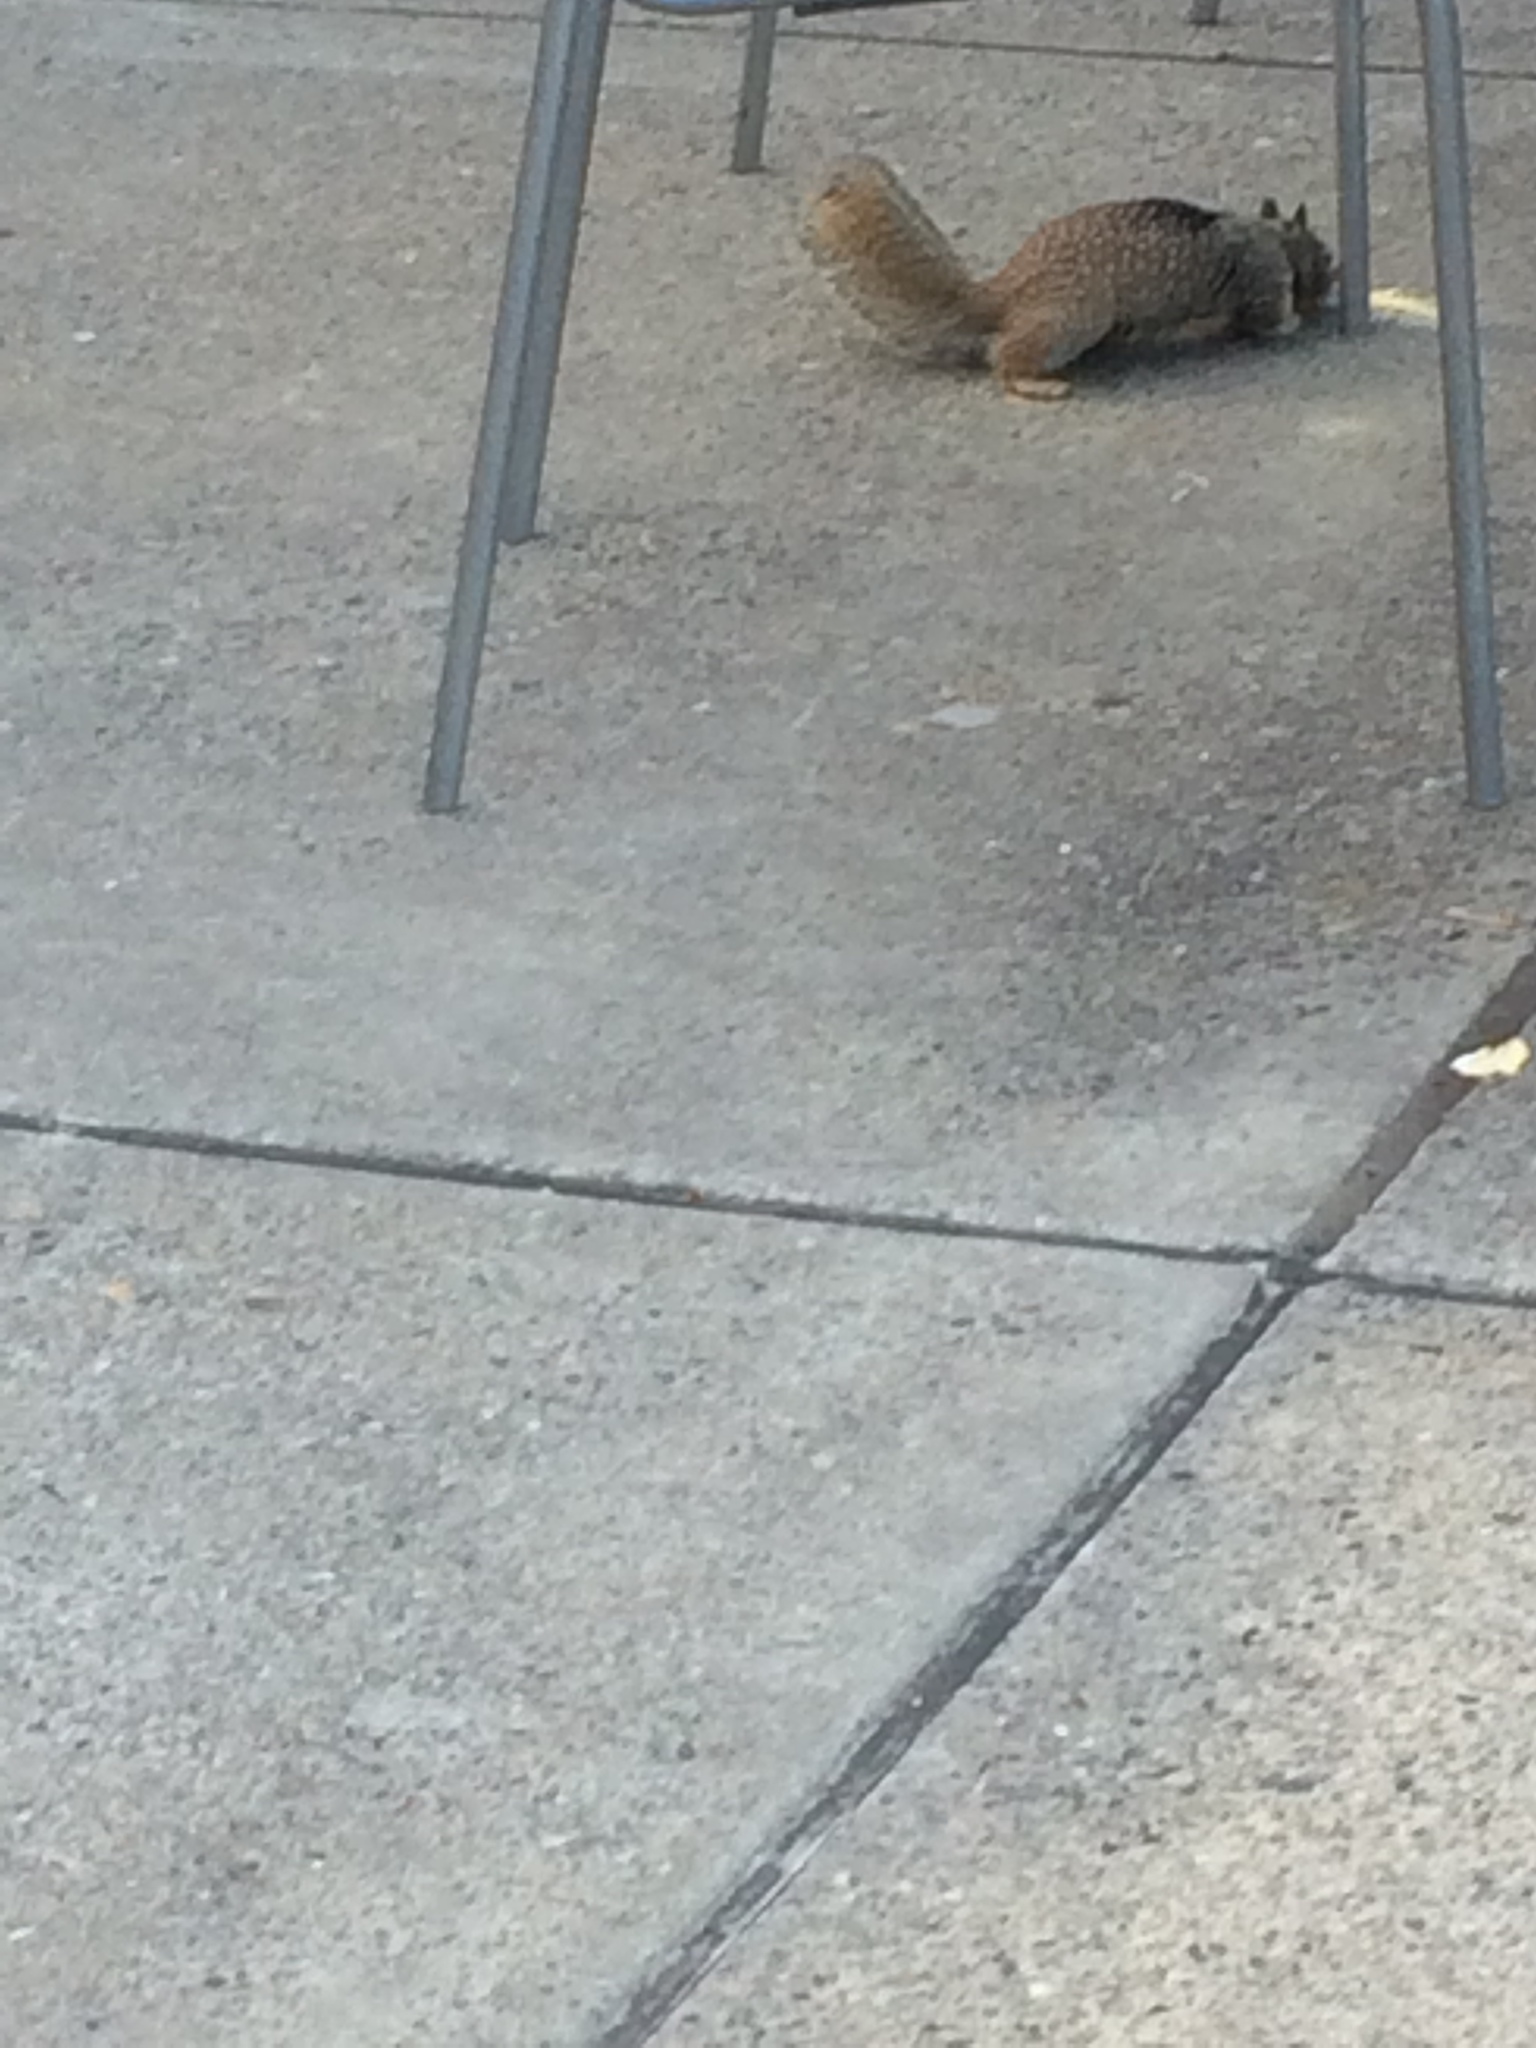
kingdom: Animalia
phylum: Chordata
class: Mammalia
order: Rodentia
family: Sciuridae
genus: Otospermophilus
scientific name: Otospermophilus beecheyi
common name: California ground squirrel
